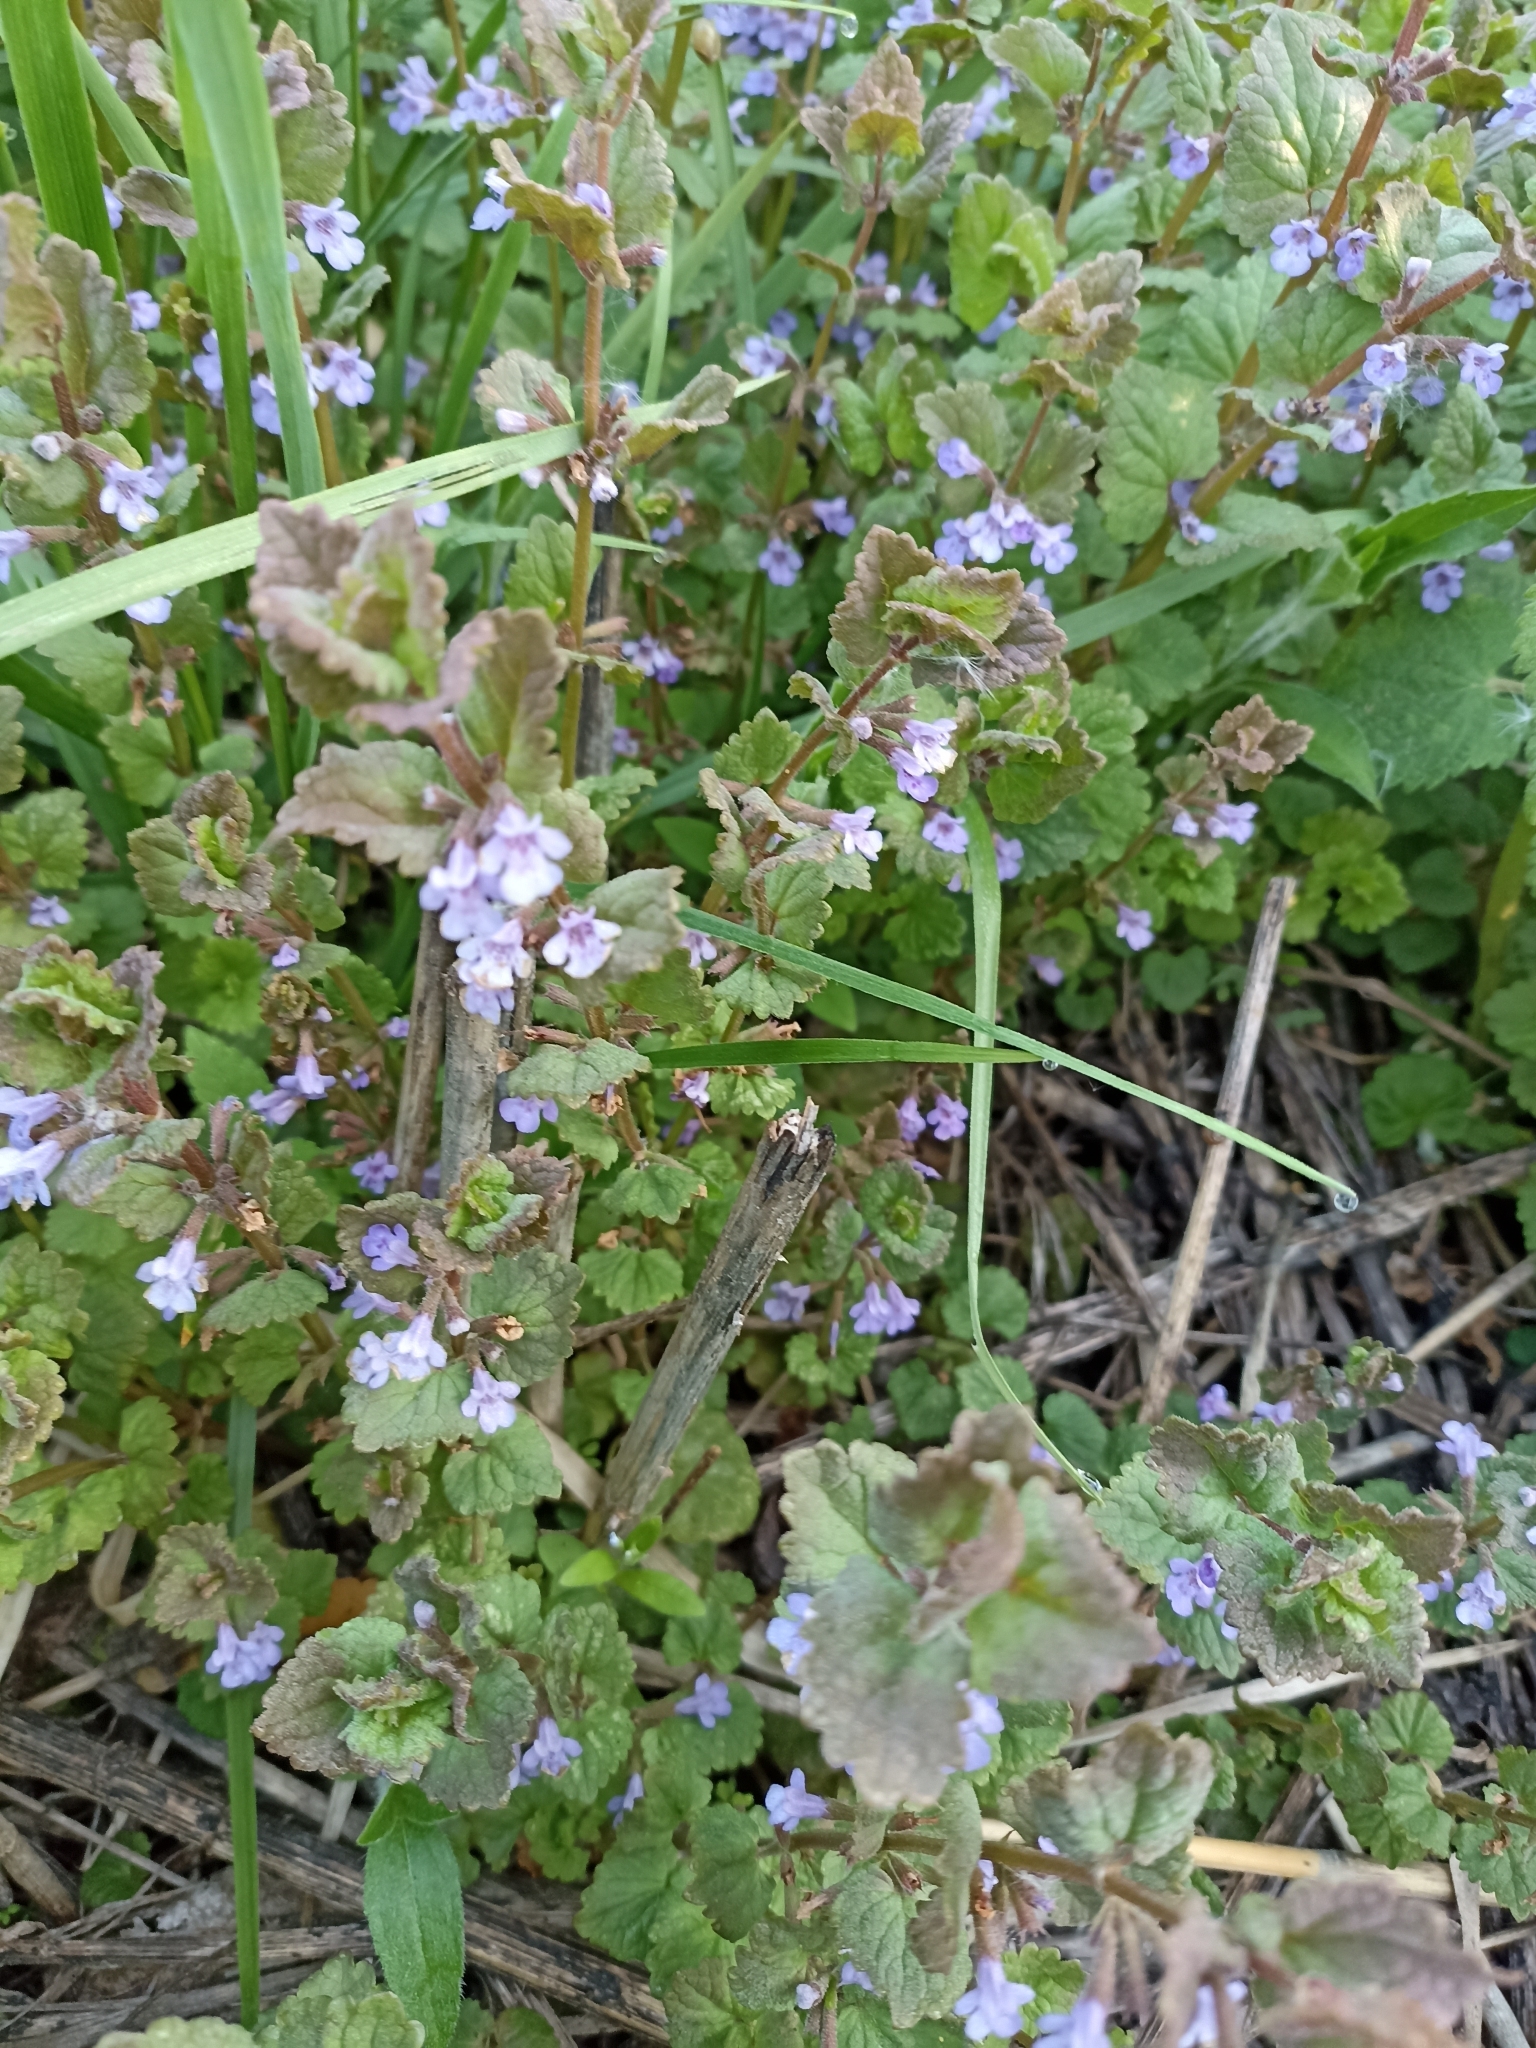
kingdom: Plantae
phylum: Tracheophyta
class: Magnoliopsida
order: Lamiales
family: Lamiaceae
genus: Glechoma
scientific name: Glechoma hederacea
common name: Ground ivy
